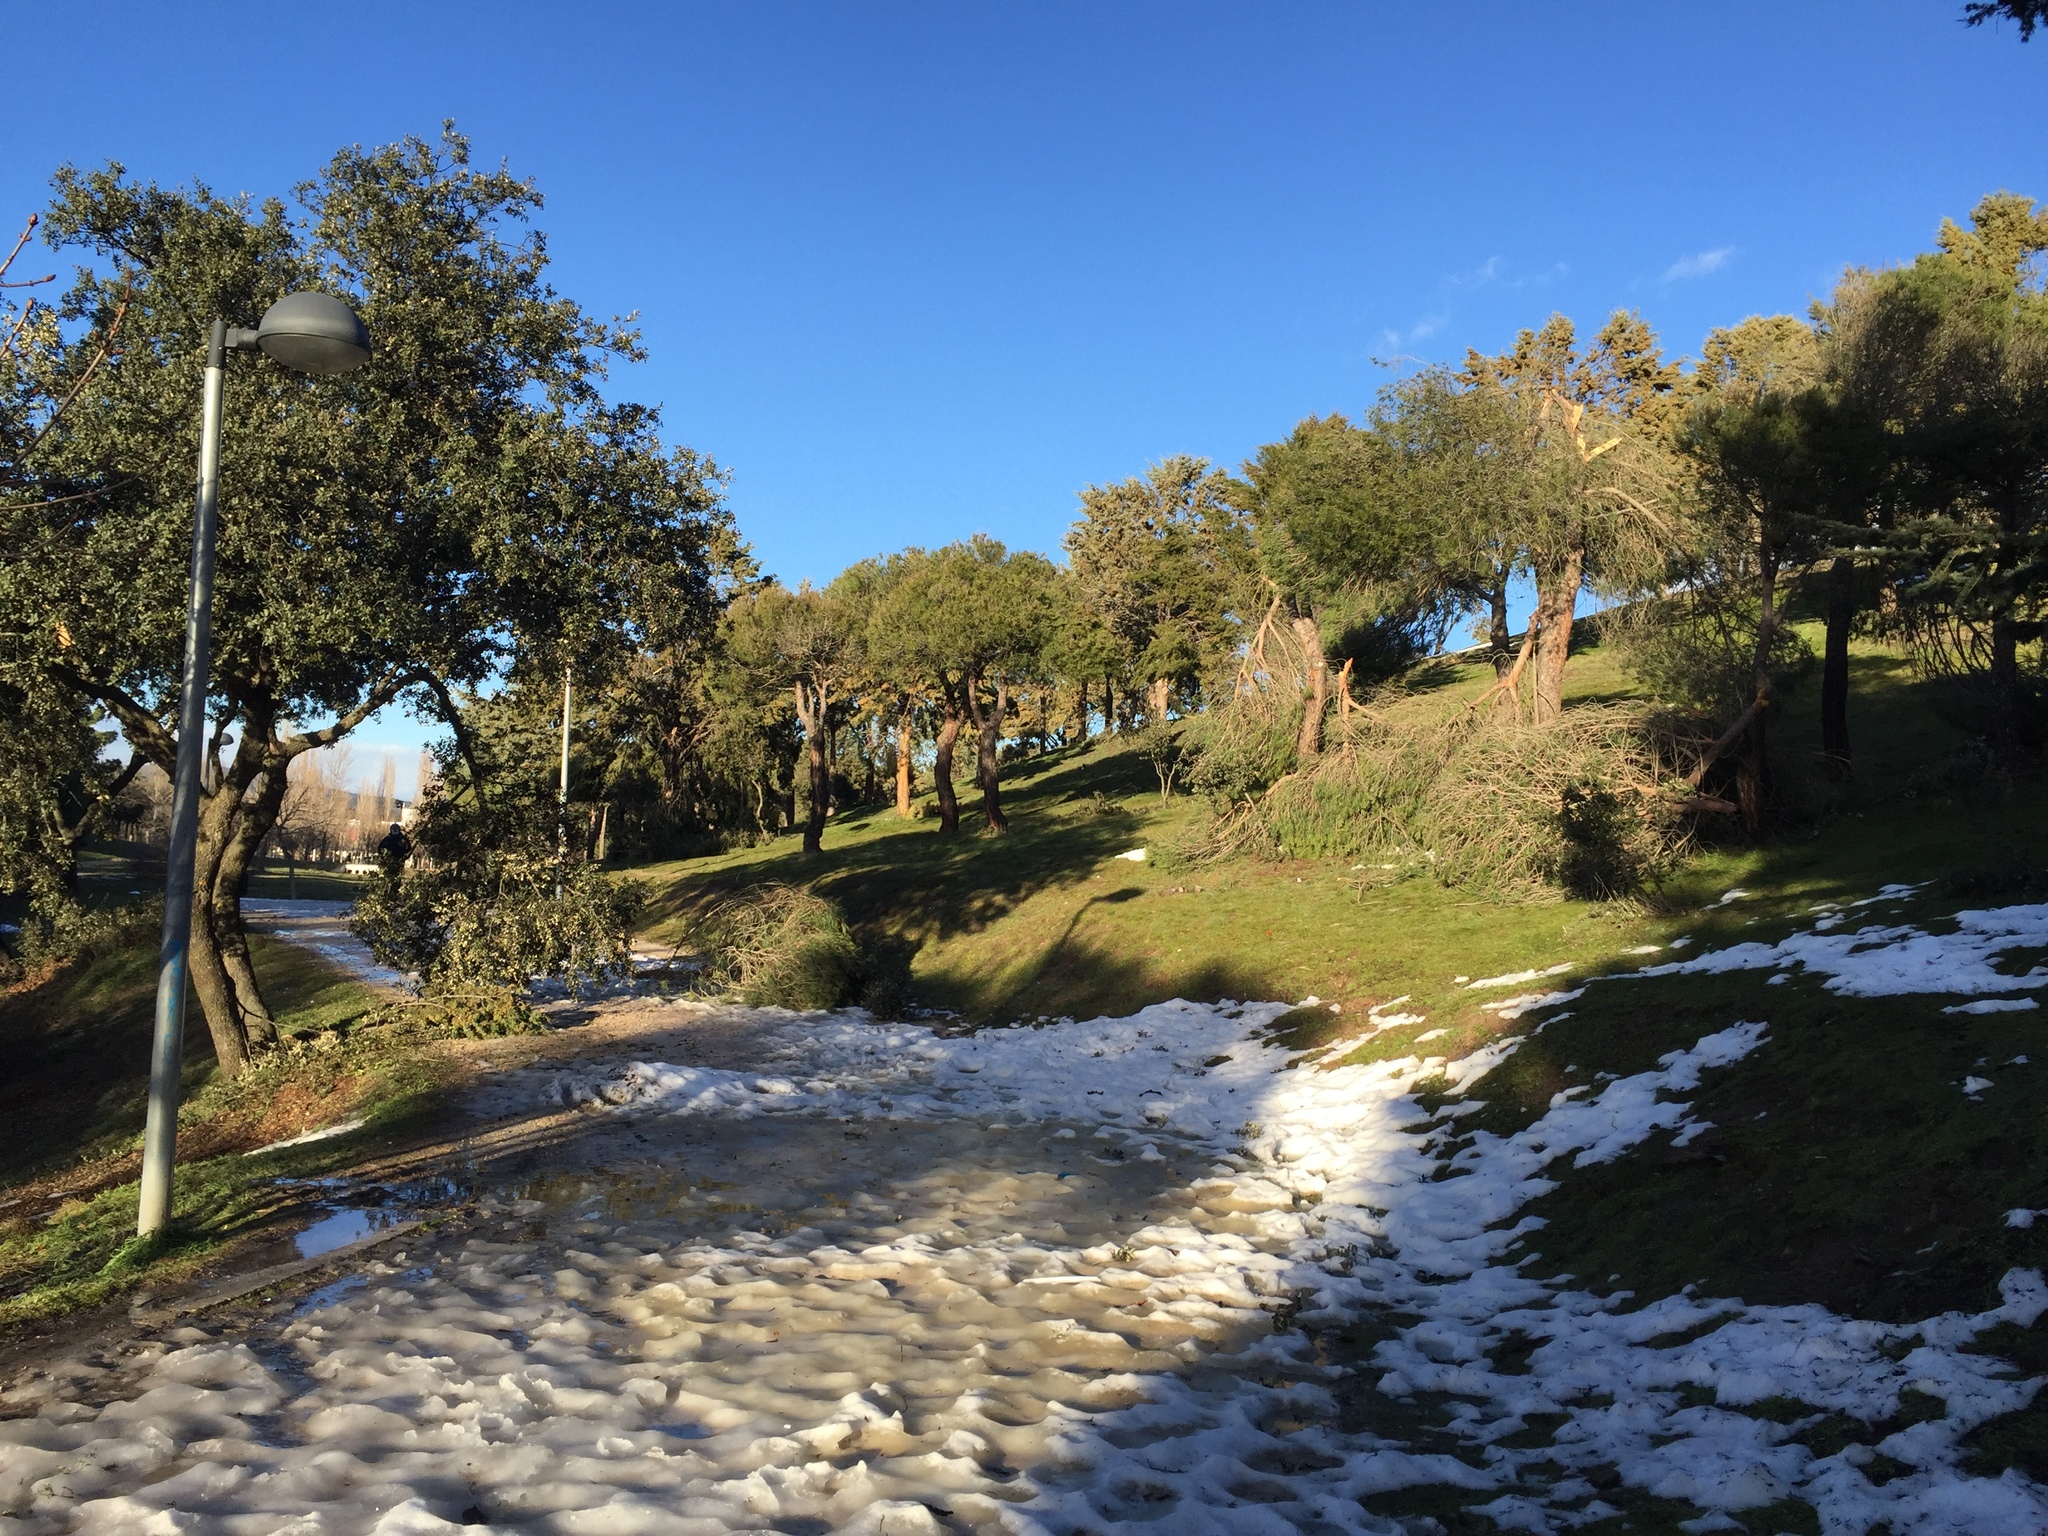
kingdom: Plantae
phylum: Tracheophyta
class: Pinopsida
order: Pinales
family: Pinaceae
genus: Pinus
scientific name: Pinus pinea
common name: Italian stone pine
